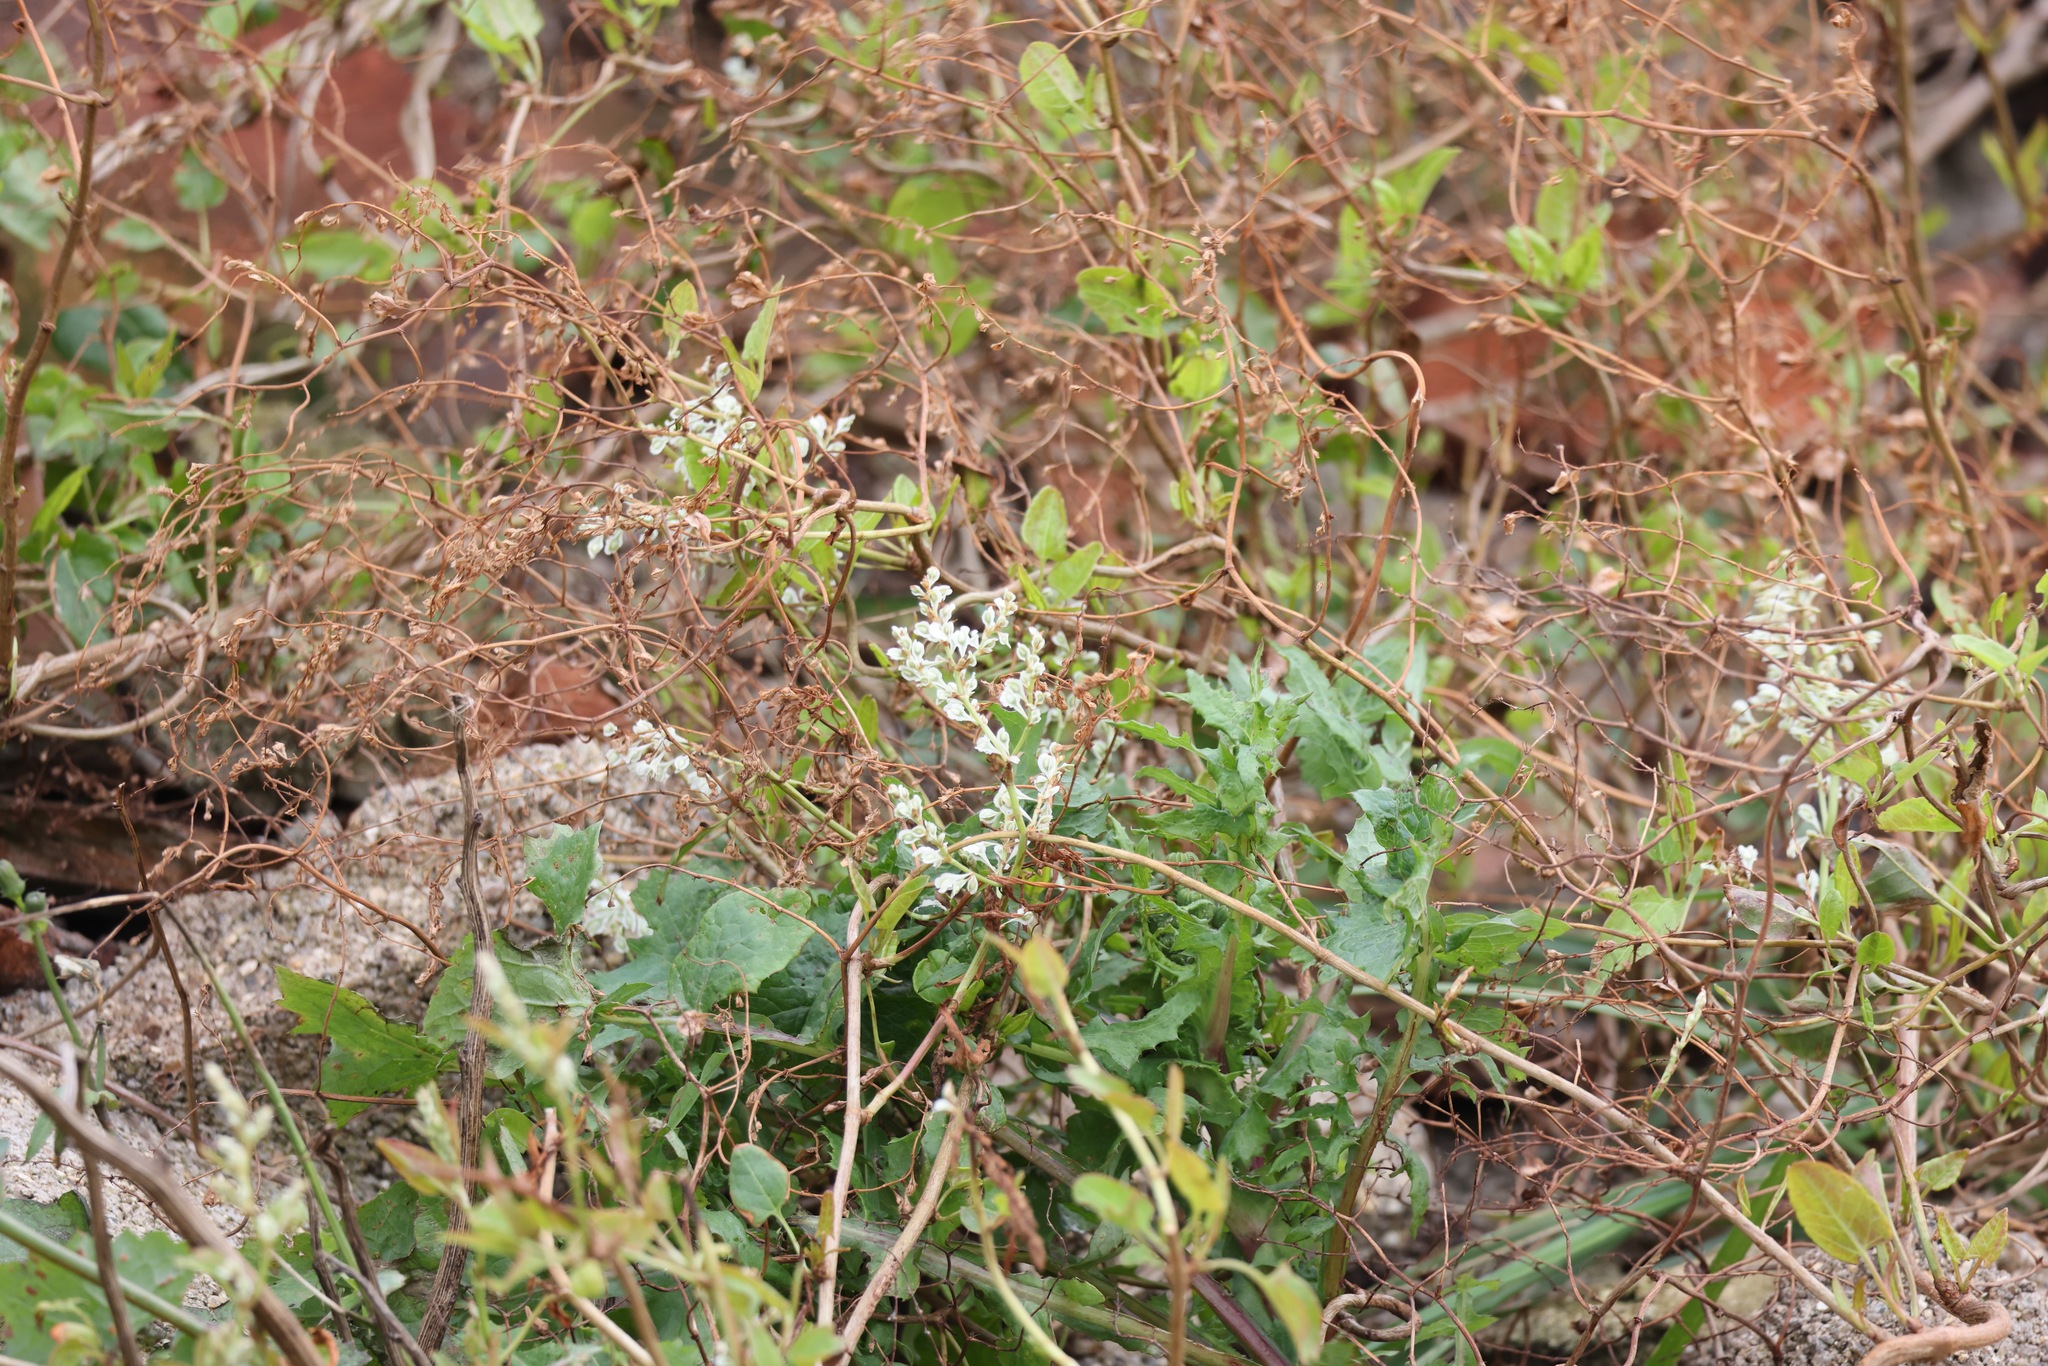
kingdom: Plantae
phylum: Tracheophyta
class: Magnoliopsida
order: Caryophyllales
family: Polygonaceae
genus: Fallopia
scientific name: Fallopia baldschuanica
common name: Russian-vine
